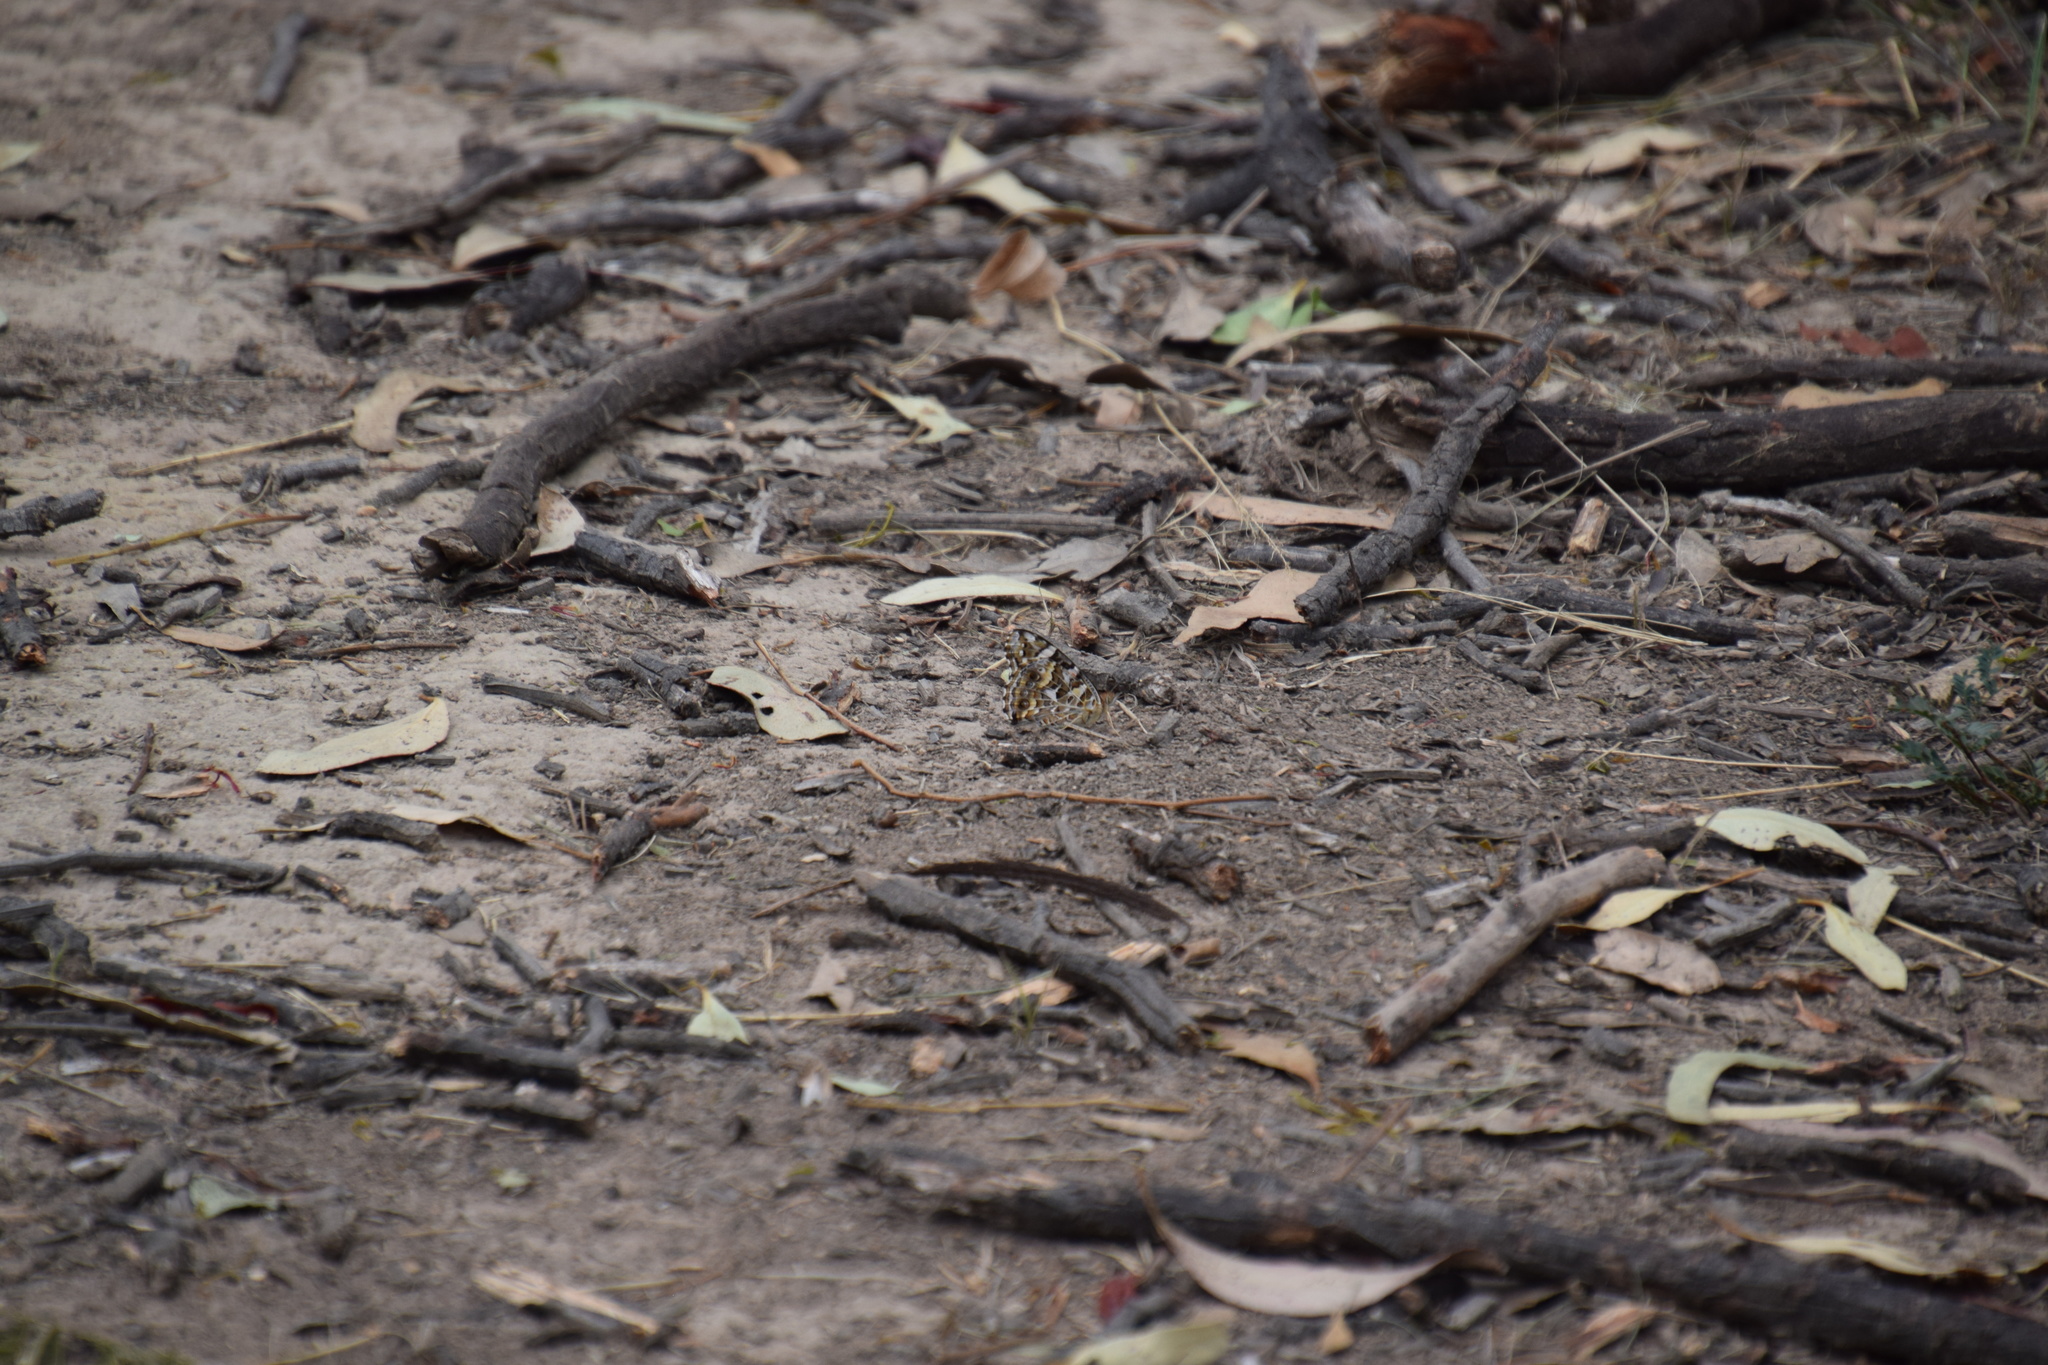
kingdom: Animalia
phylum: Arthropoda
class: Insecta
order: Lepidoptera
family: Nymphalidae
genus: Vanessa
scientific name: Vanessa kershawi
